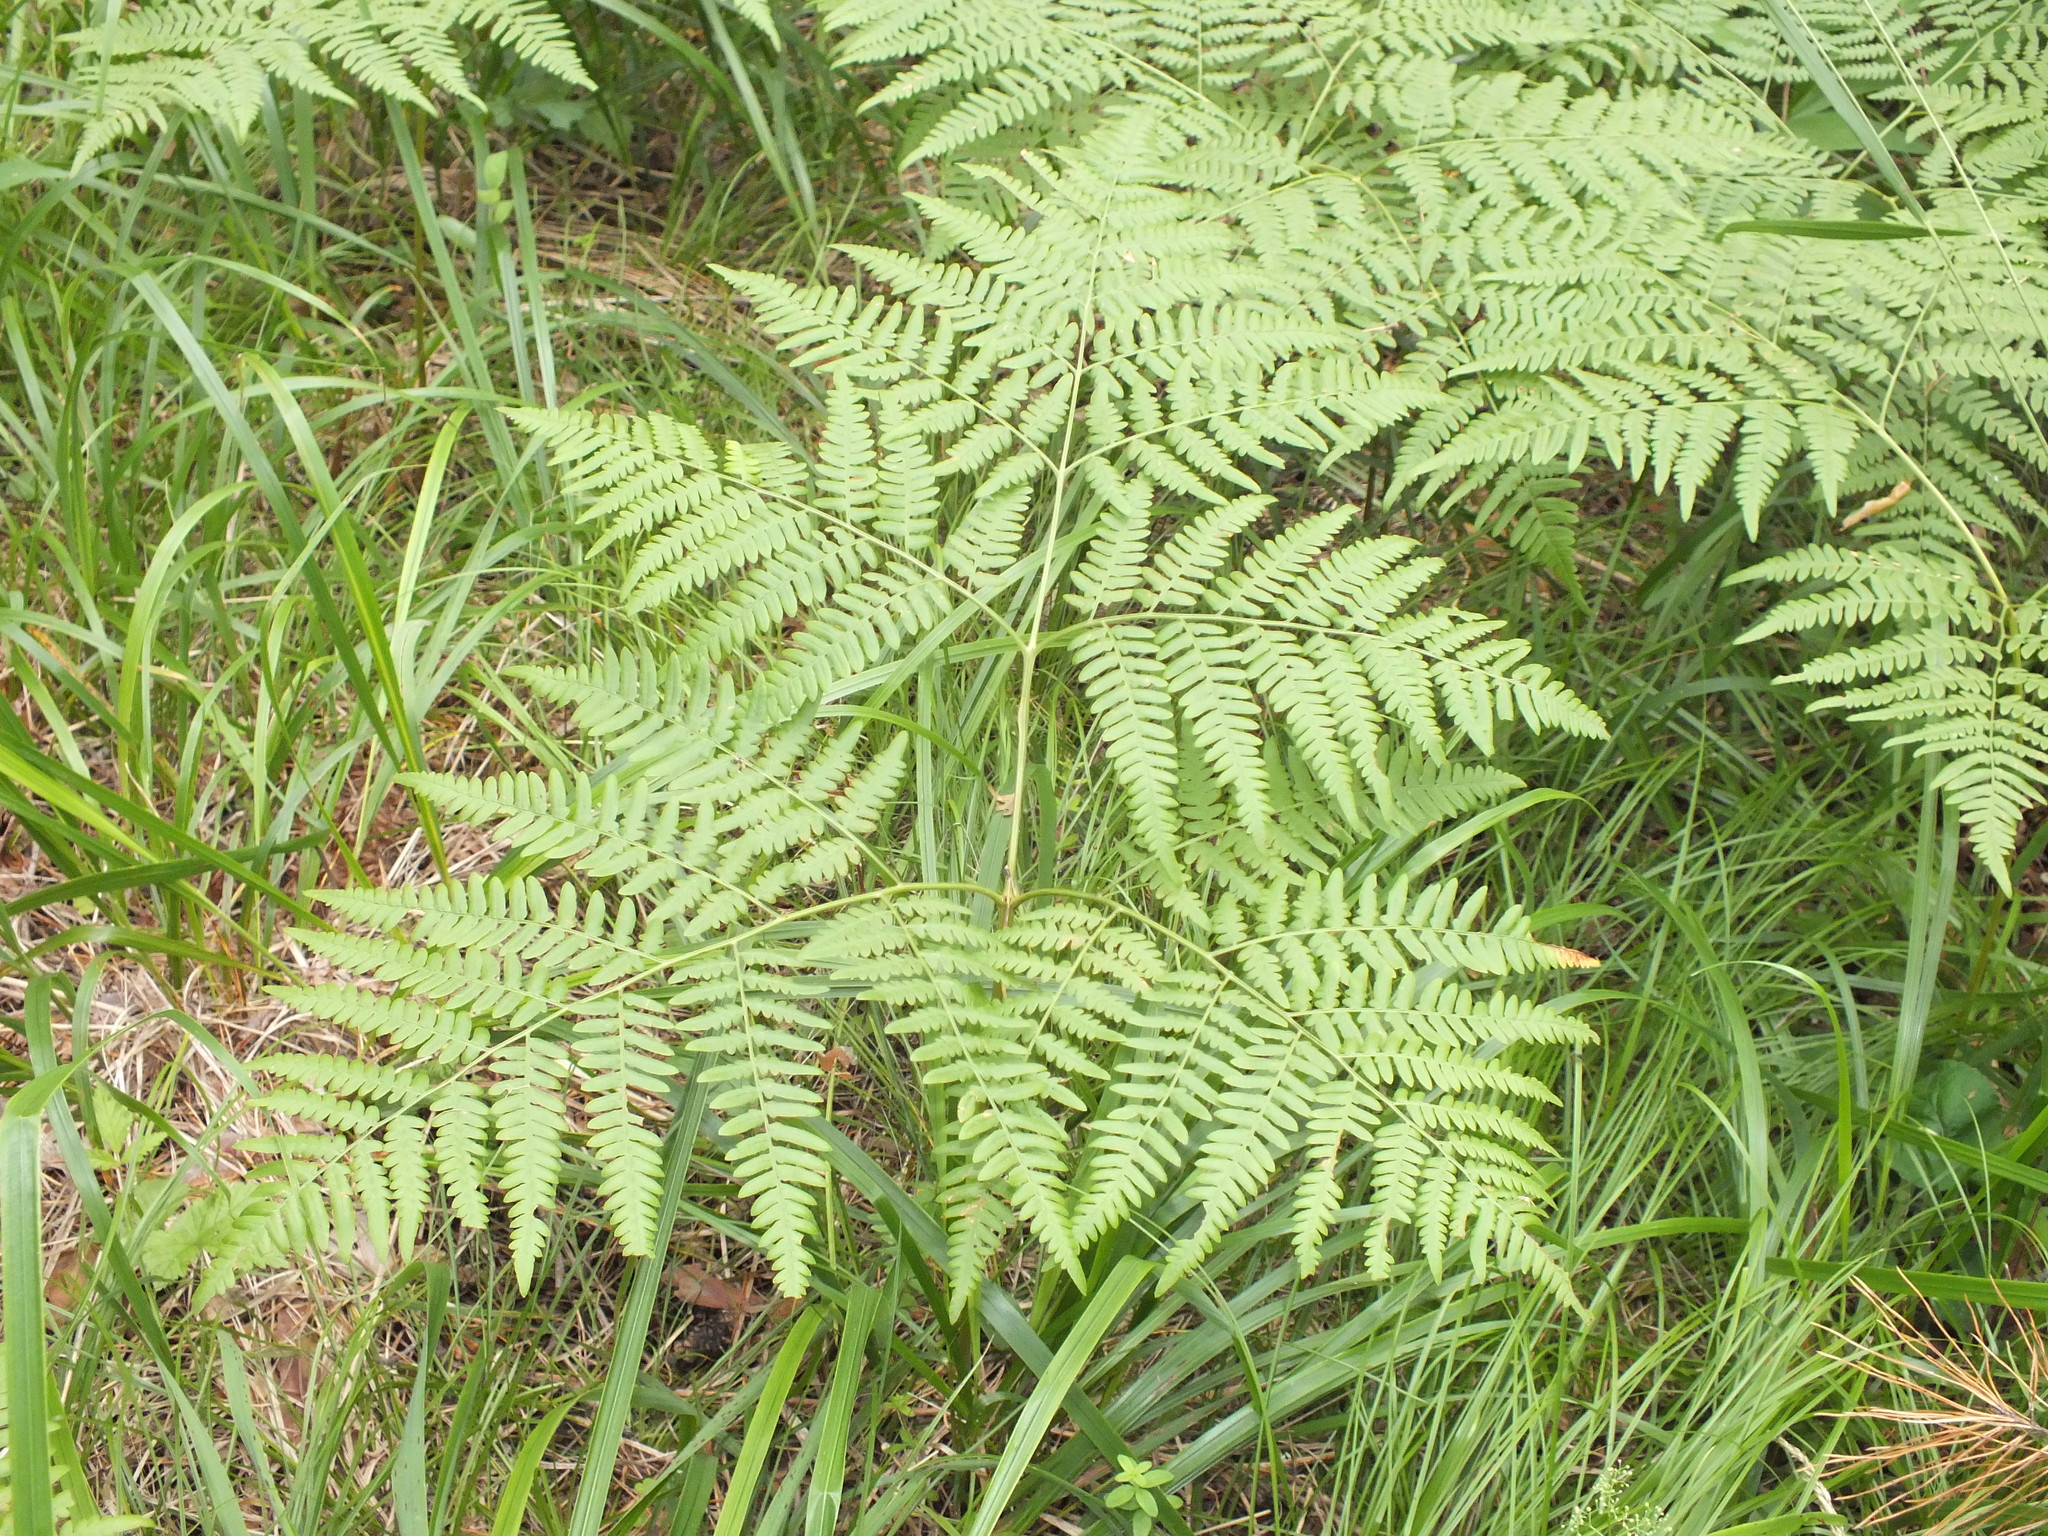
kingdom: Plantae
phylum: Tracheophyta
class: Polypodiopsida
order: Polypodiales
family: Dennstaedtiaceae
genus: Pteridium
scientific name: Pteridium aquilinum
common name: Bracken
